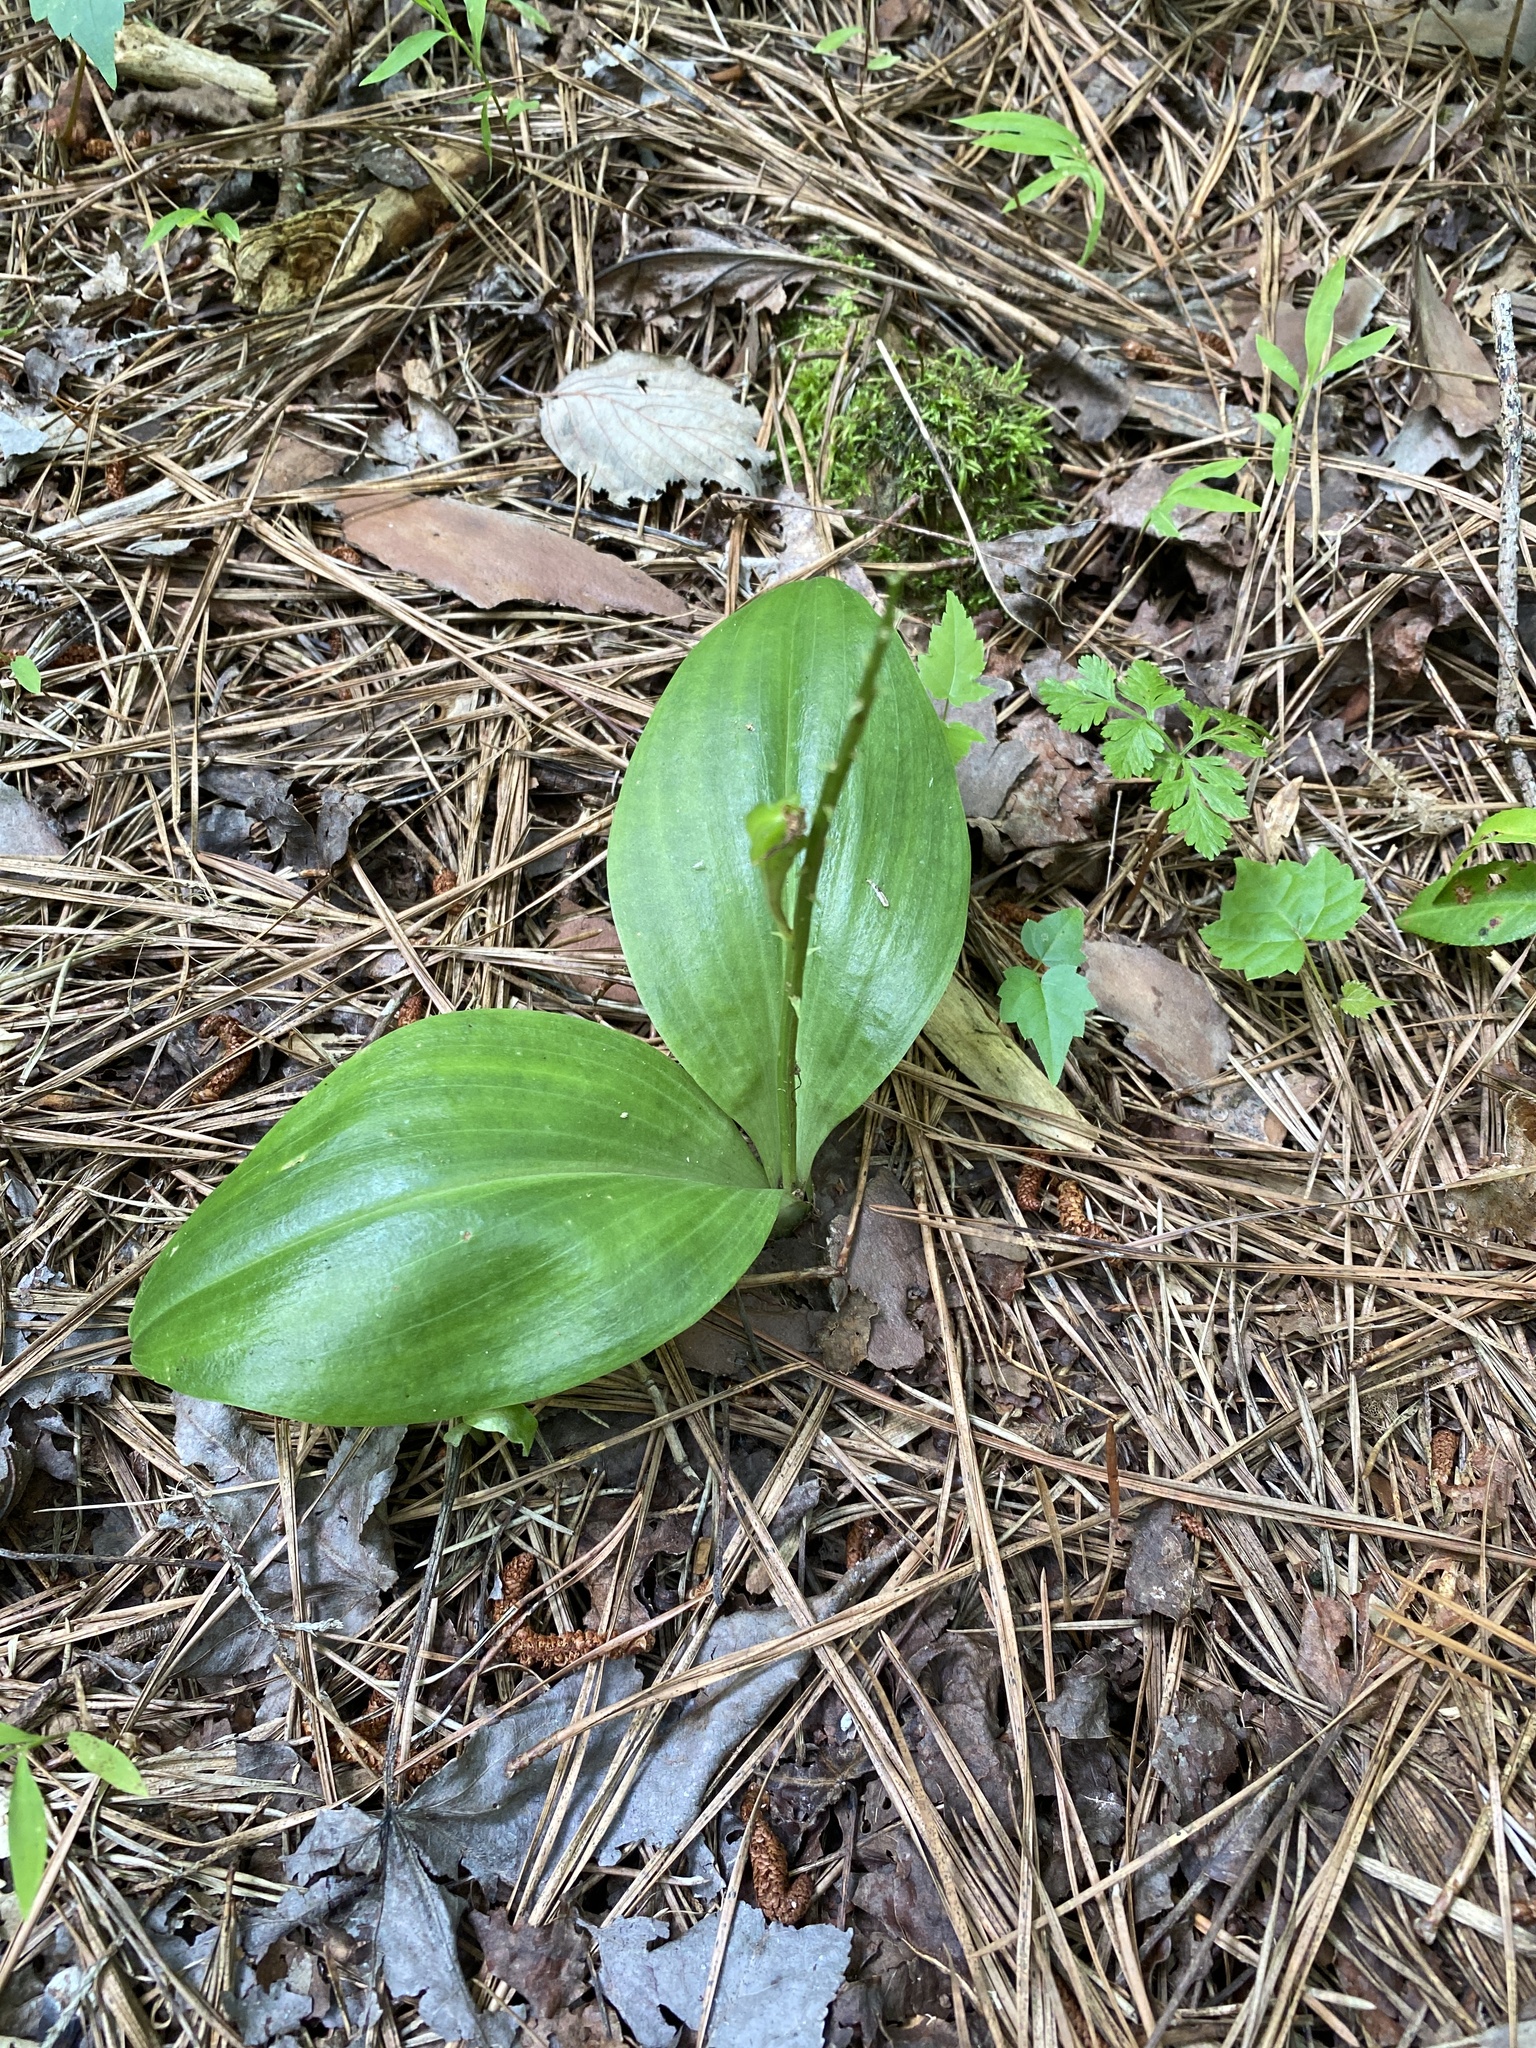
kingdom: Plantae
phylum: Tracheophyta
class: Liliopsida
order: Asparagales
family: Orchidaceae
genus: Galearis
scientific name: Galearis spectabilis
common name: Purple-hooded orchis
